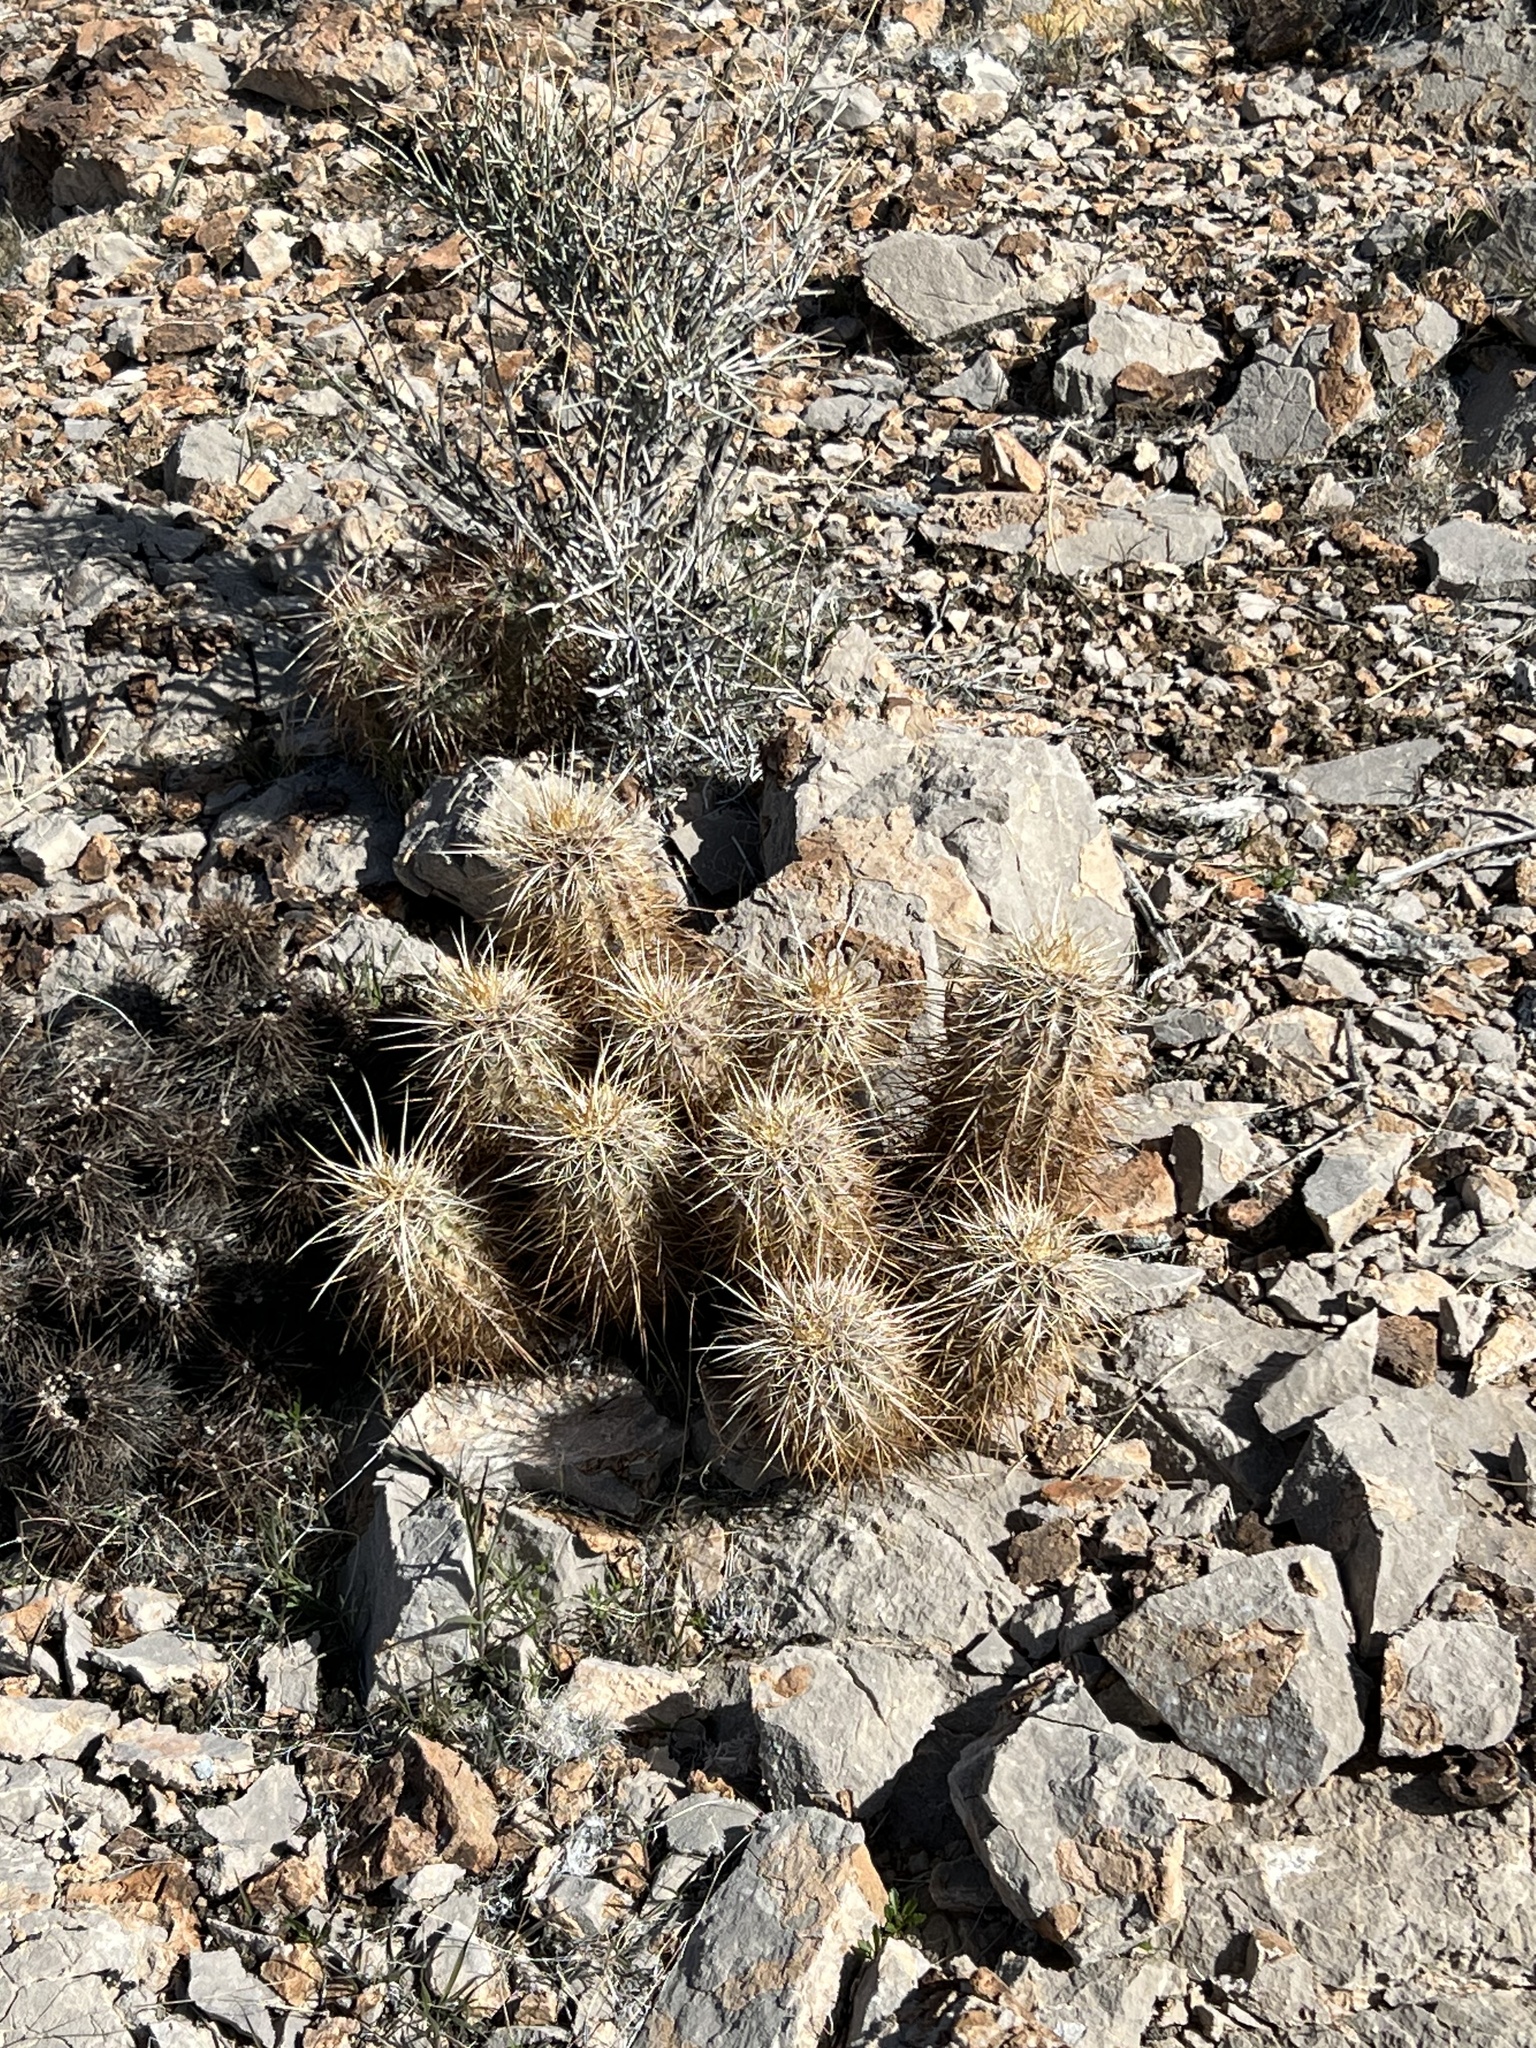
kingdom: Plantae
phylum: Tracheophyta
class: Magnoliopsida
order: Caryophyllales
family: Cactaceae
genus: Echinocereus
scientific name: Echinocereus engelmannii
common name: Engelmann's hedgehog cactus
